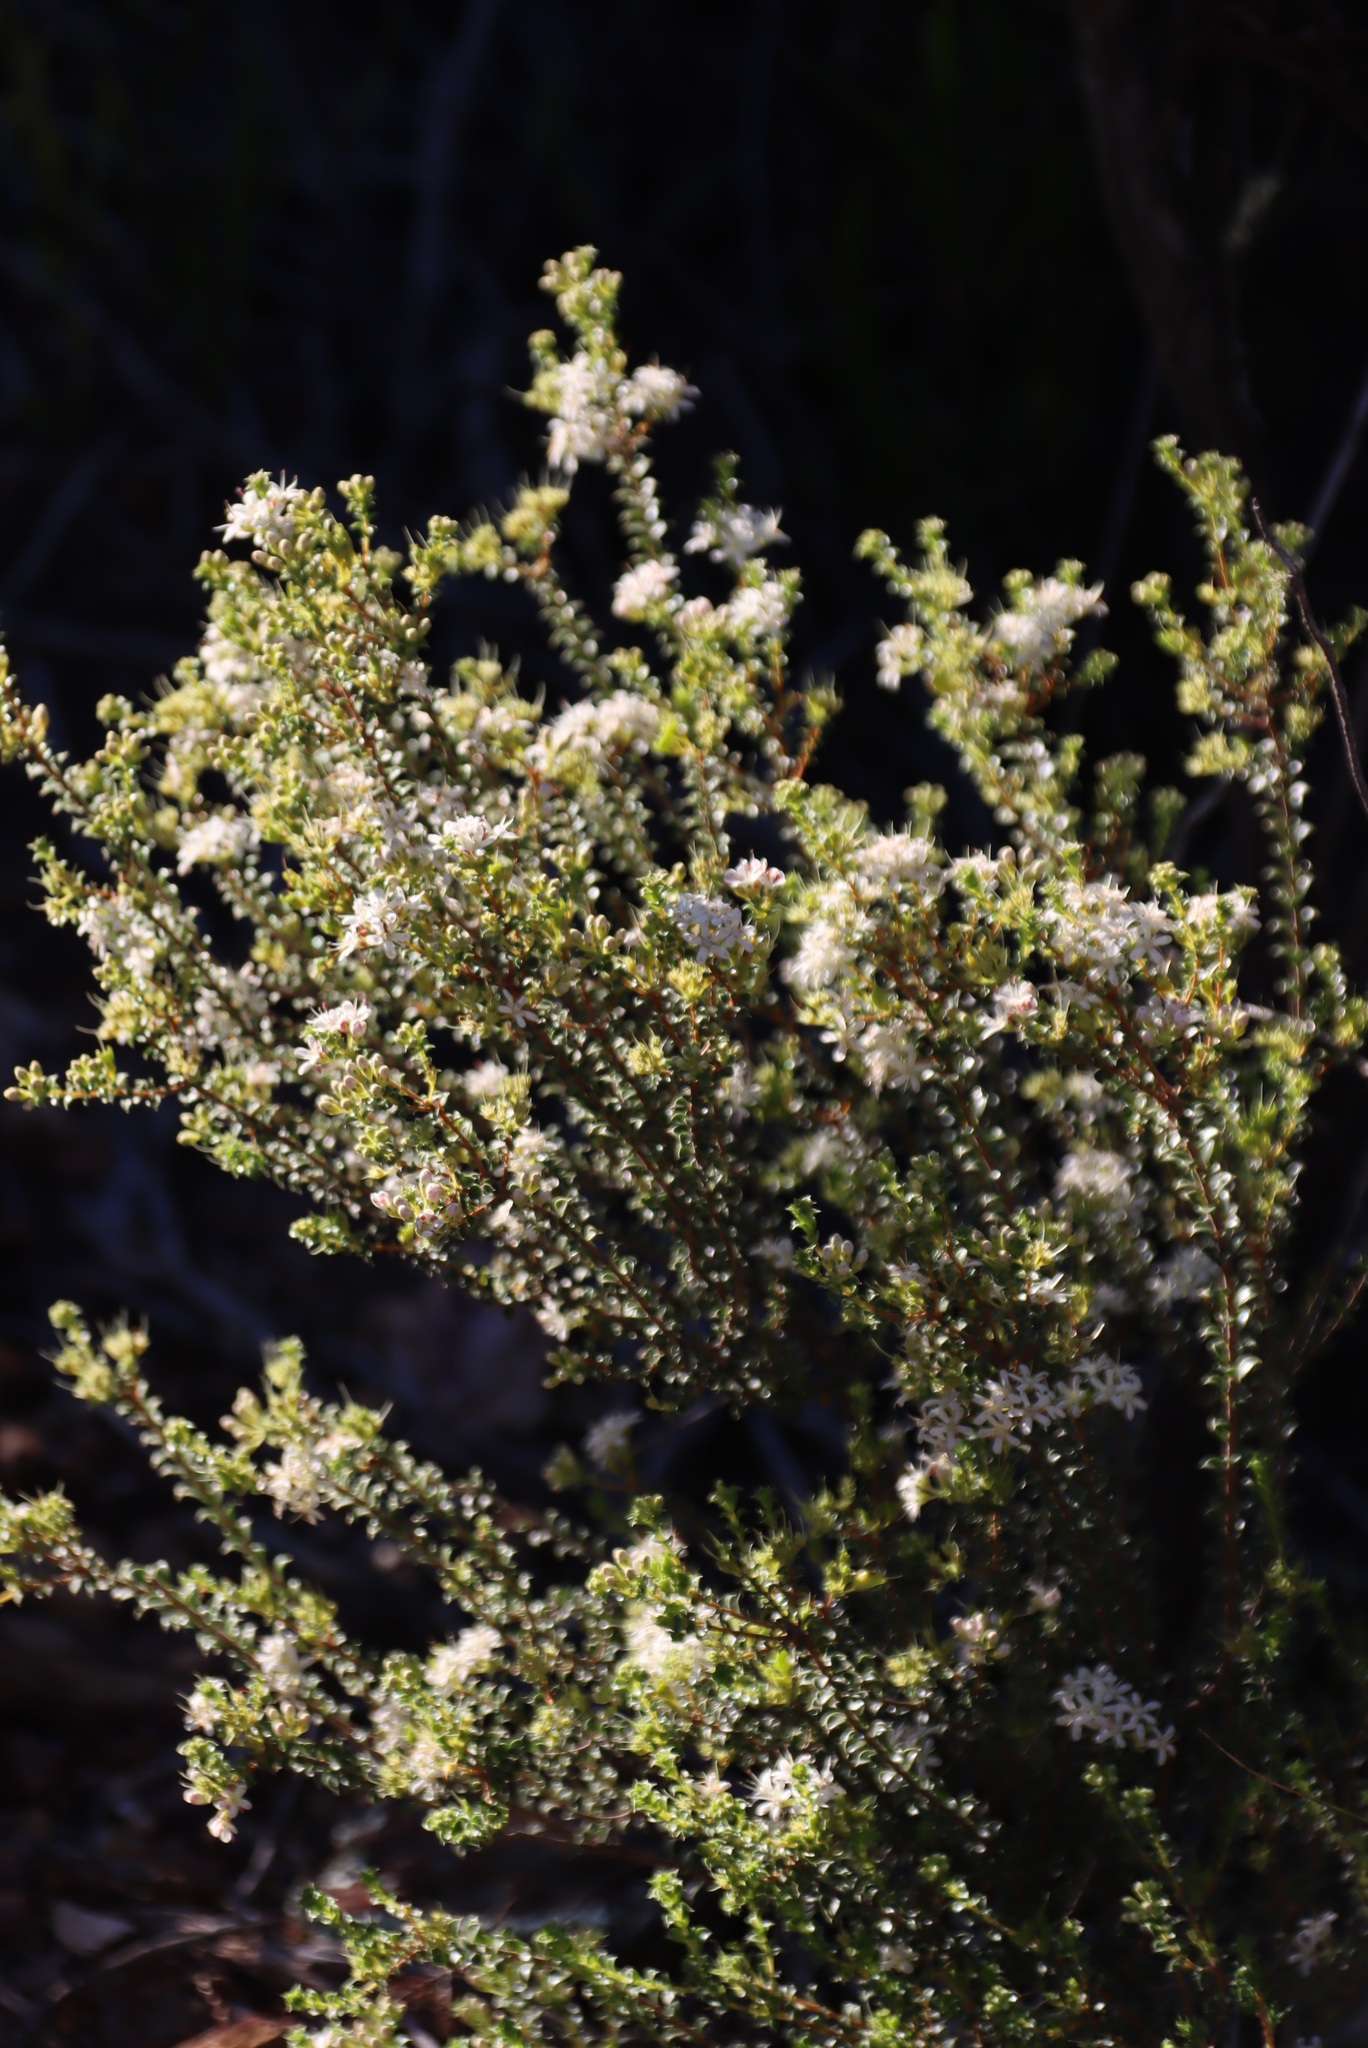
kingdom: Plantae
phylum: Tracheophyta
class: Magnoliopsida
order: Sapindales
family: Rutaceae
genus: Agathosma
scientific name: Agathosma recurvifolia
